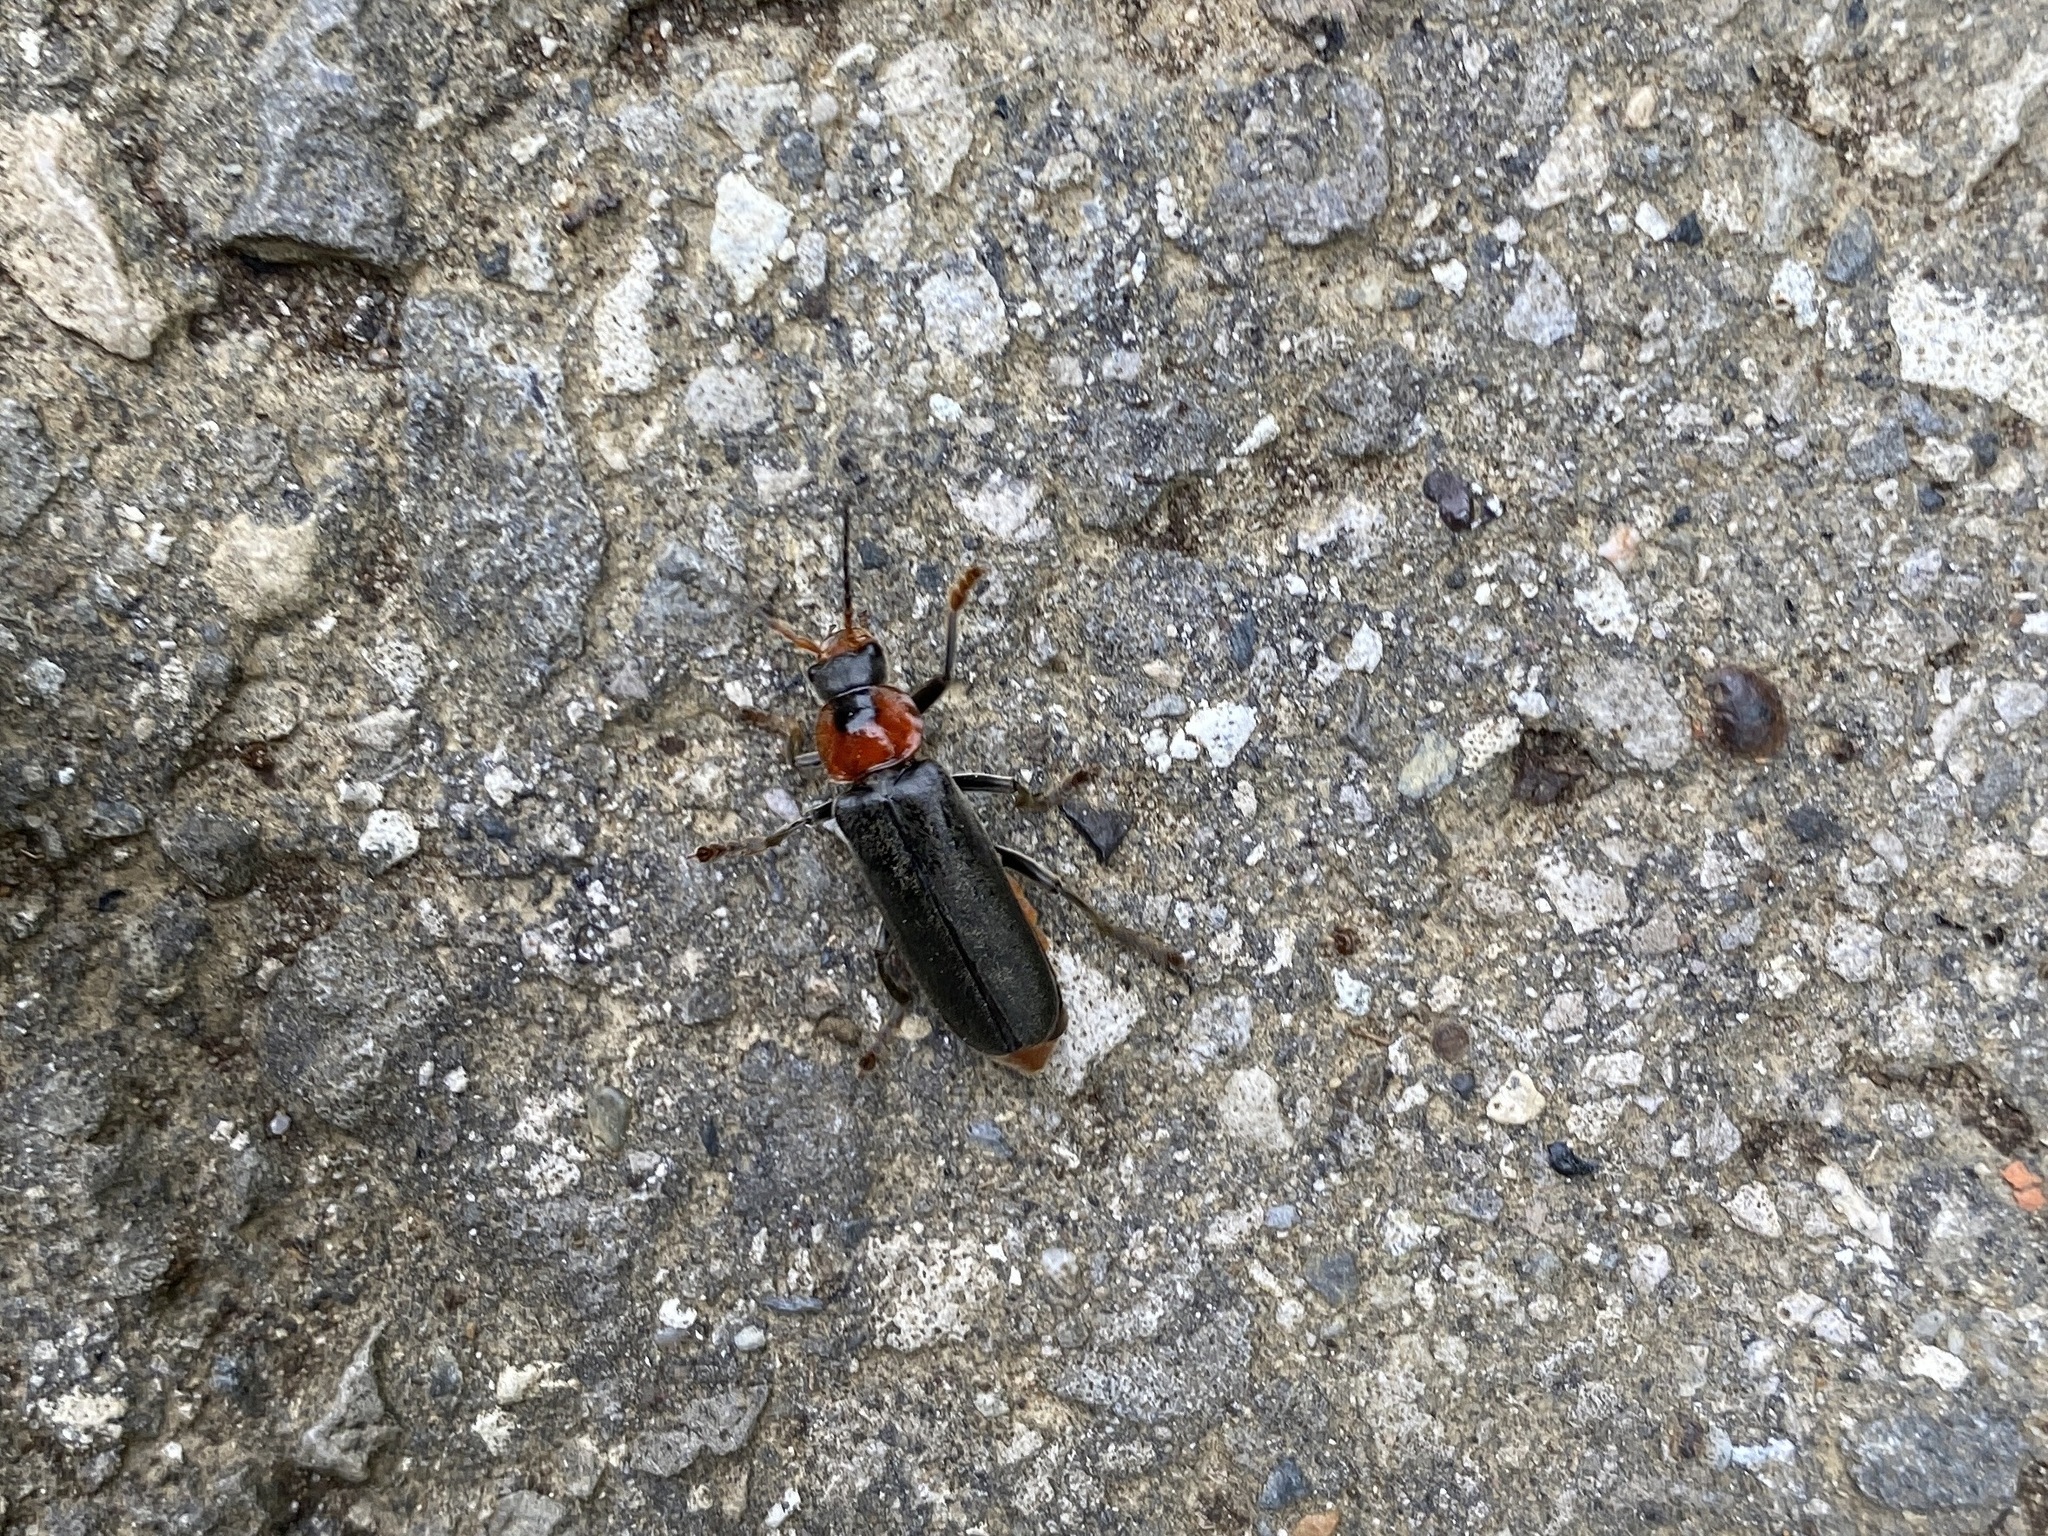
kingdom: Animalia
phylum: Arthropoda
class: Insecta
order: Coleoptera
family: Cantharidae
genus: Cantharis
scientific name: Cantharis fusca
